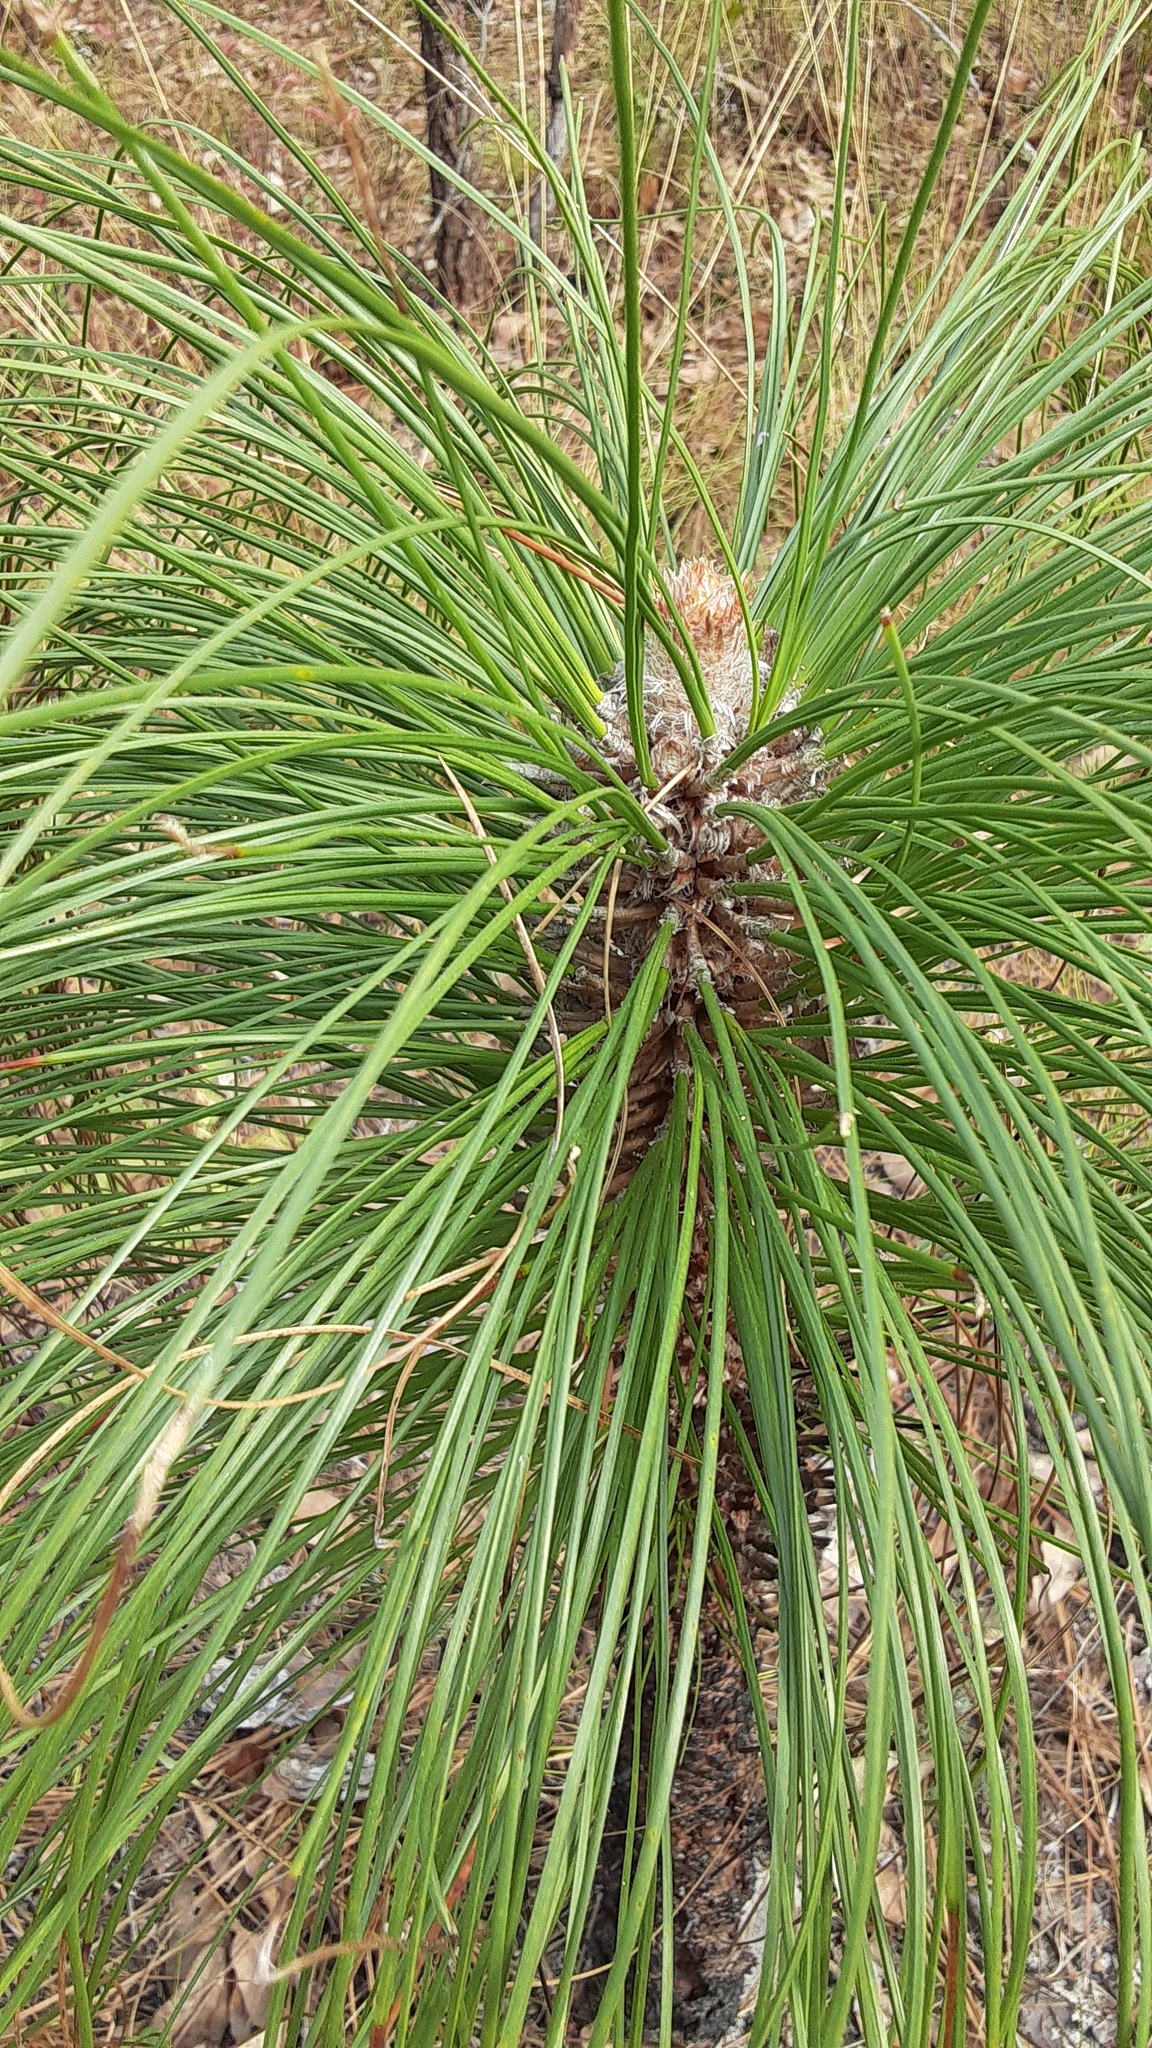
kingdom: Plantae
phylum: Tracheophyta
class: Pinopsida
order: Pinales
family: Pinaceae
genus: Pinus
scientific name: Pinus palustris
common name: Longleaf pine
